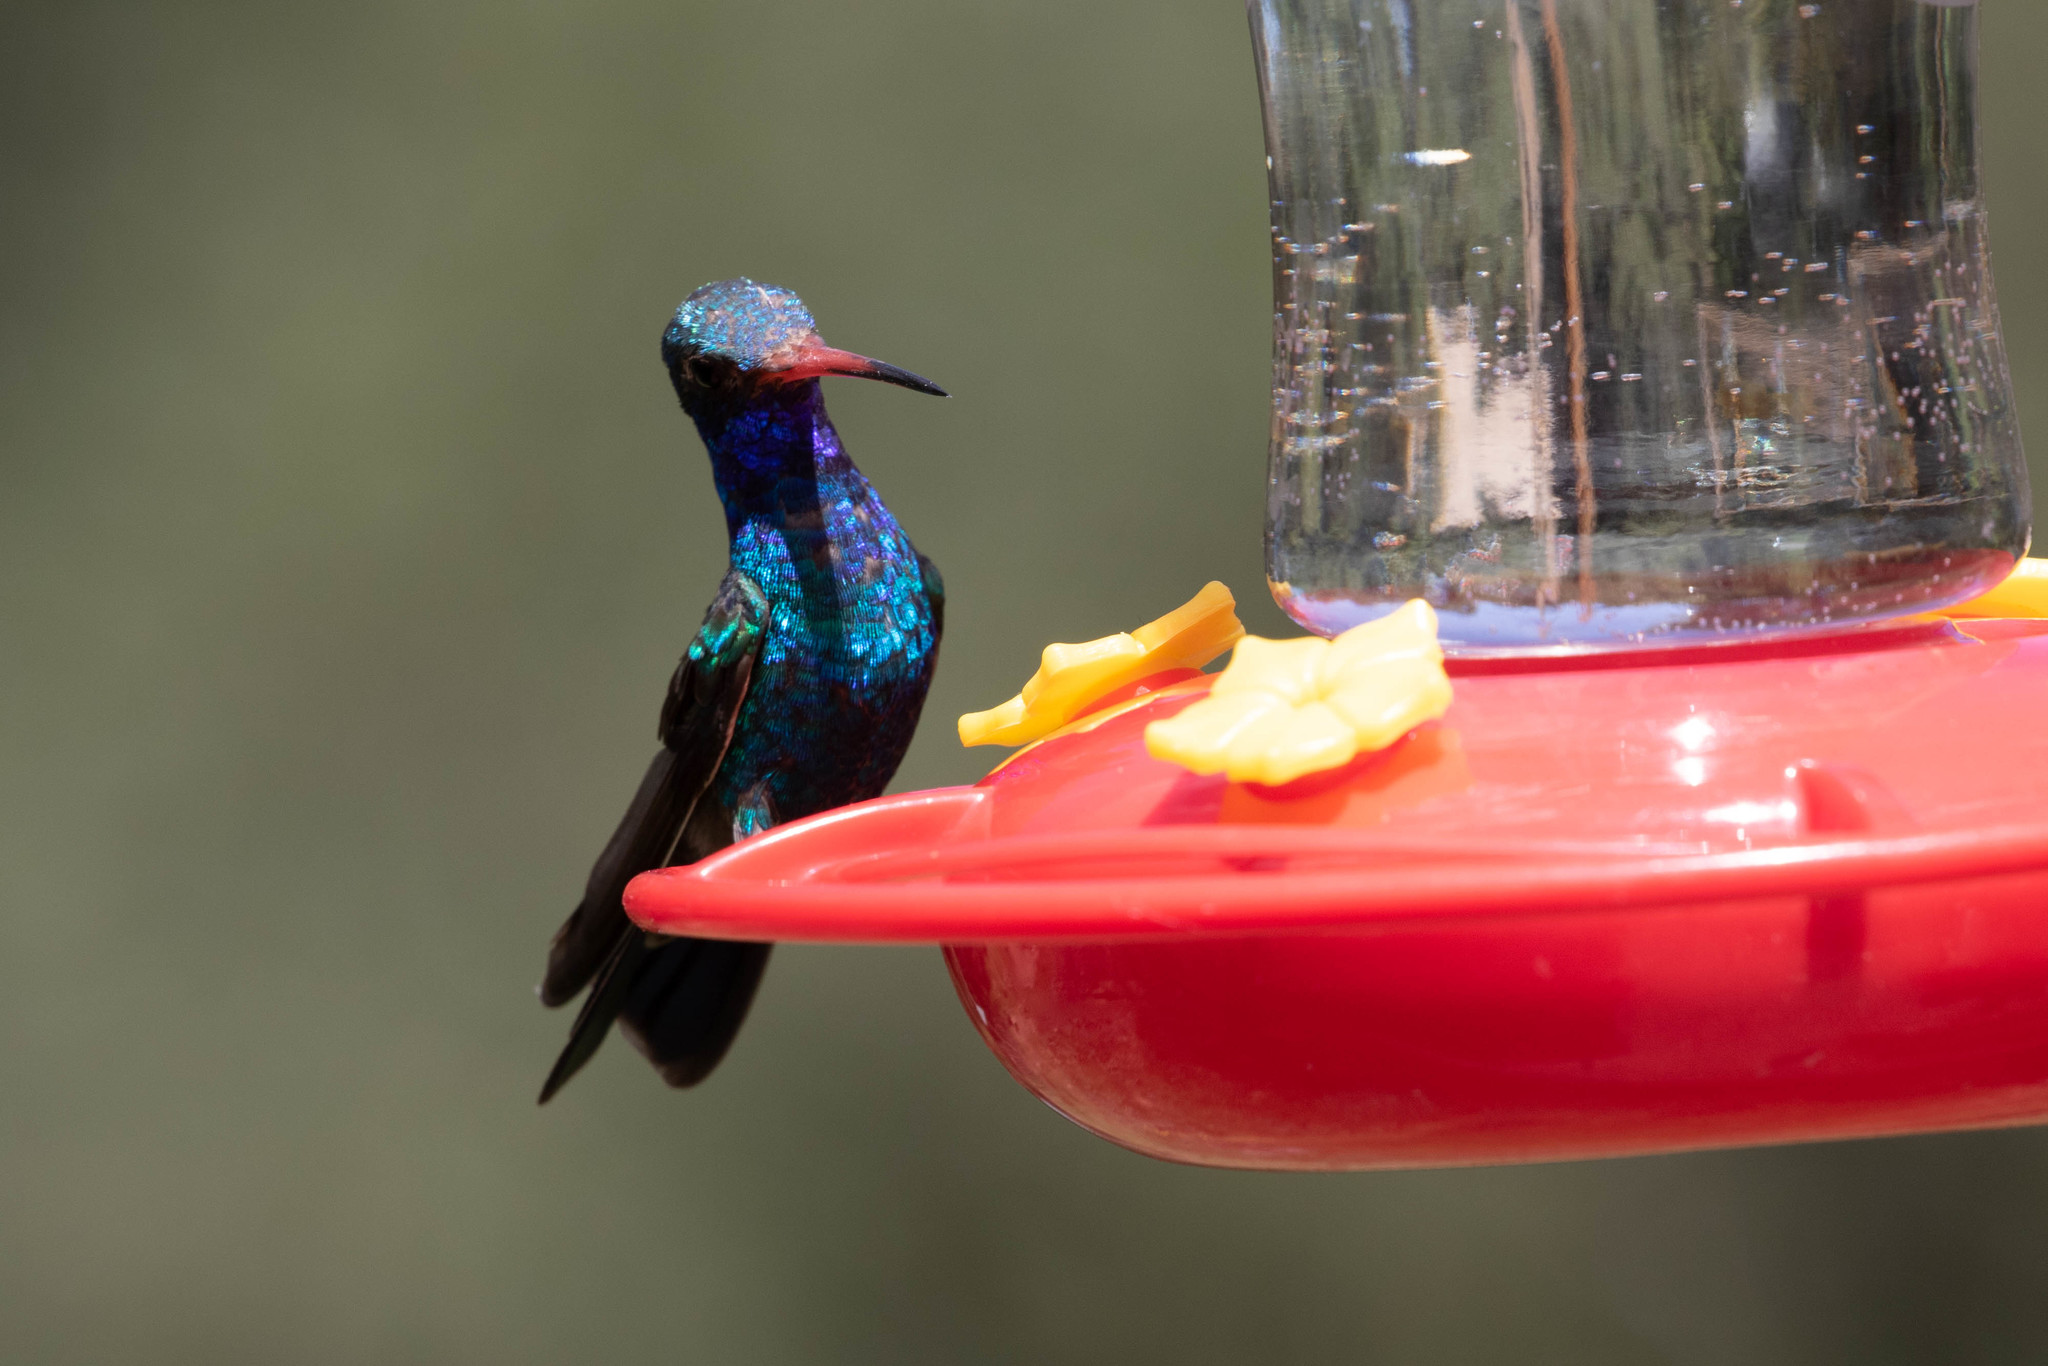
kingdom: Animalia
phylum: Chordata
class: Aves
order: Apodiformes
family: Trochilidae
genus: Cynanthus
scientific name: Cynanthus latirostris
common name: Broad-billed hummingbird
